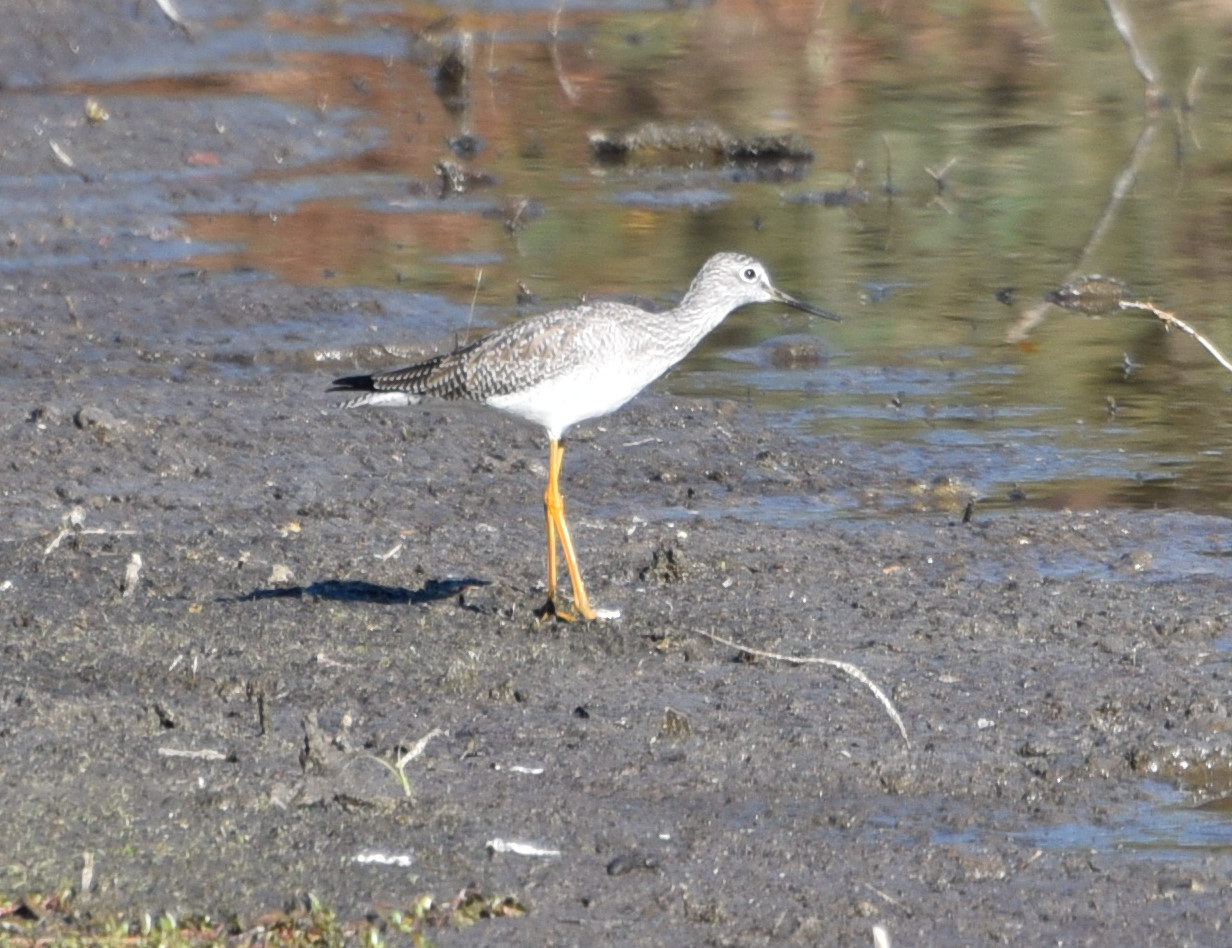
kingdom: Animalia
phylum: Chordata
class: Aves
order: Charadriiformes
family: Scolopacidae
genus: Tringa
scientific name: Tringa melanoleuca
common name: Greater yellowlegs
